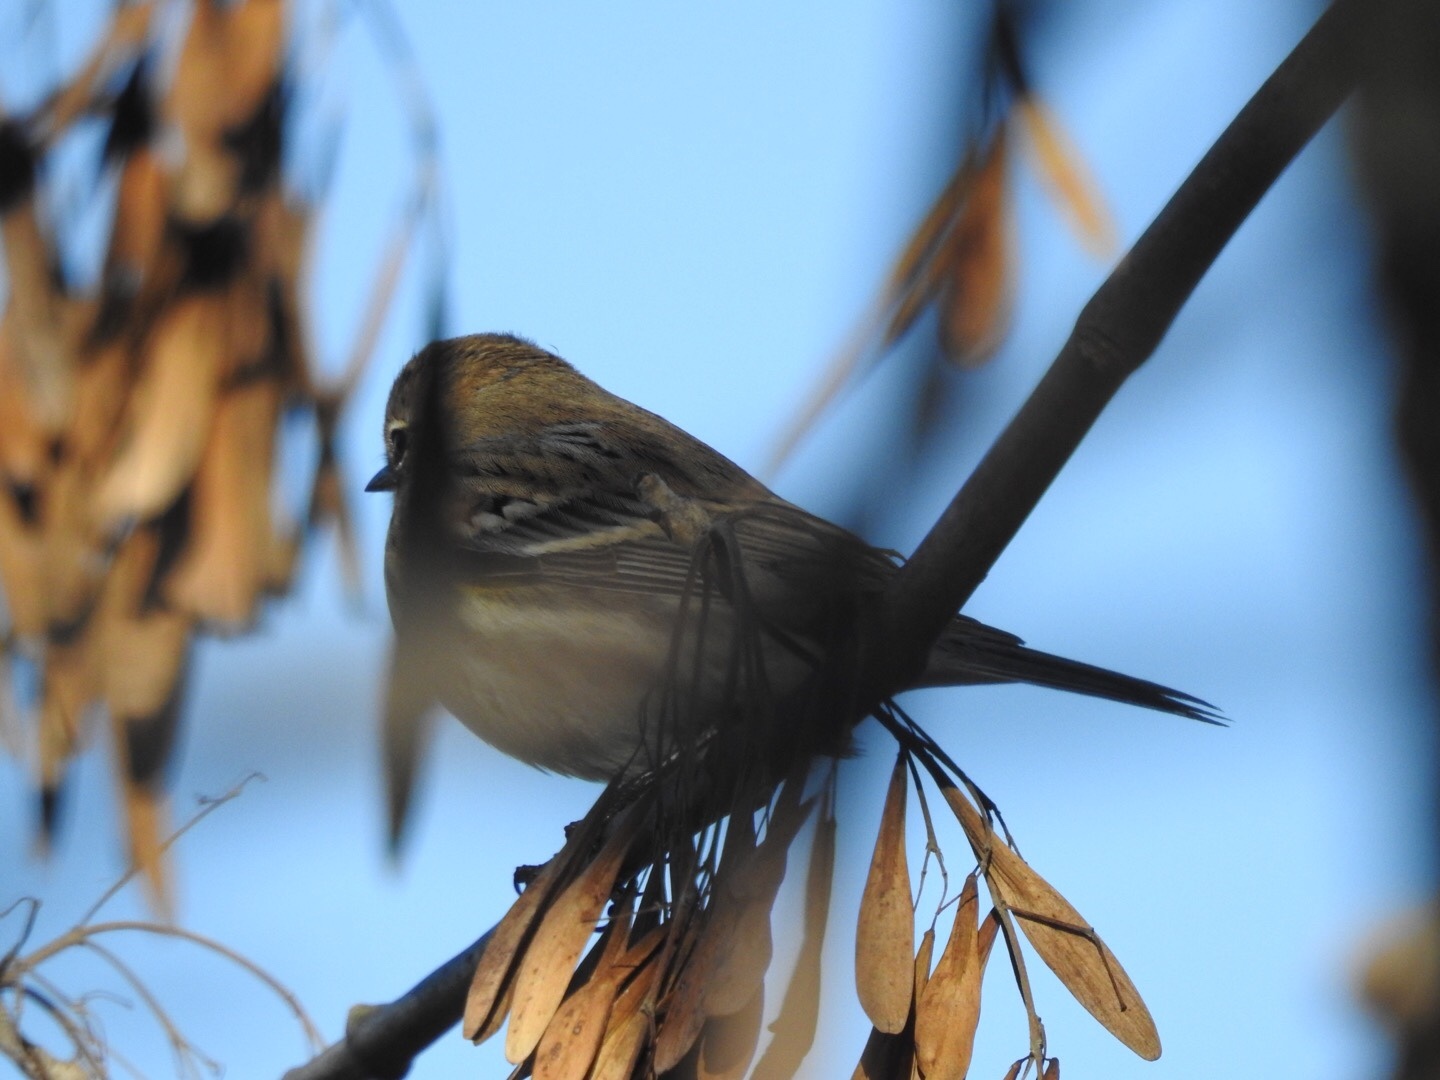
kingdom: Animalia
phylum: Chordata
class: Aves
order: Passeriformes
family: Parulidae
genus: Setophaga
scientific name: Setophaga coronata
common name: Myrtle warbler
